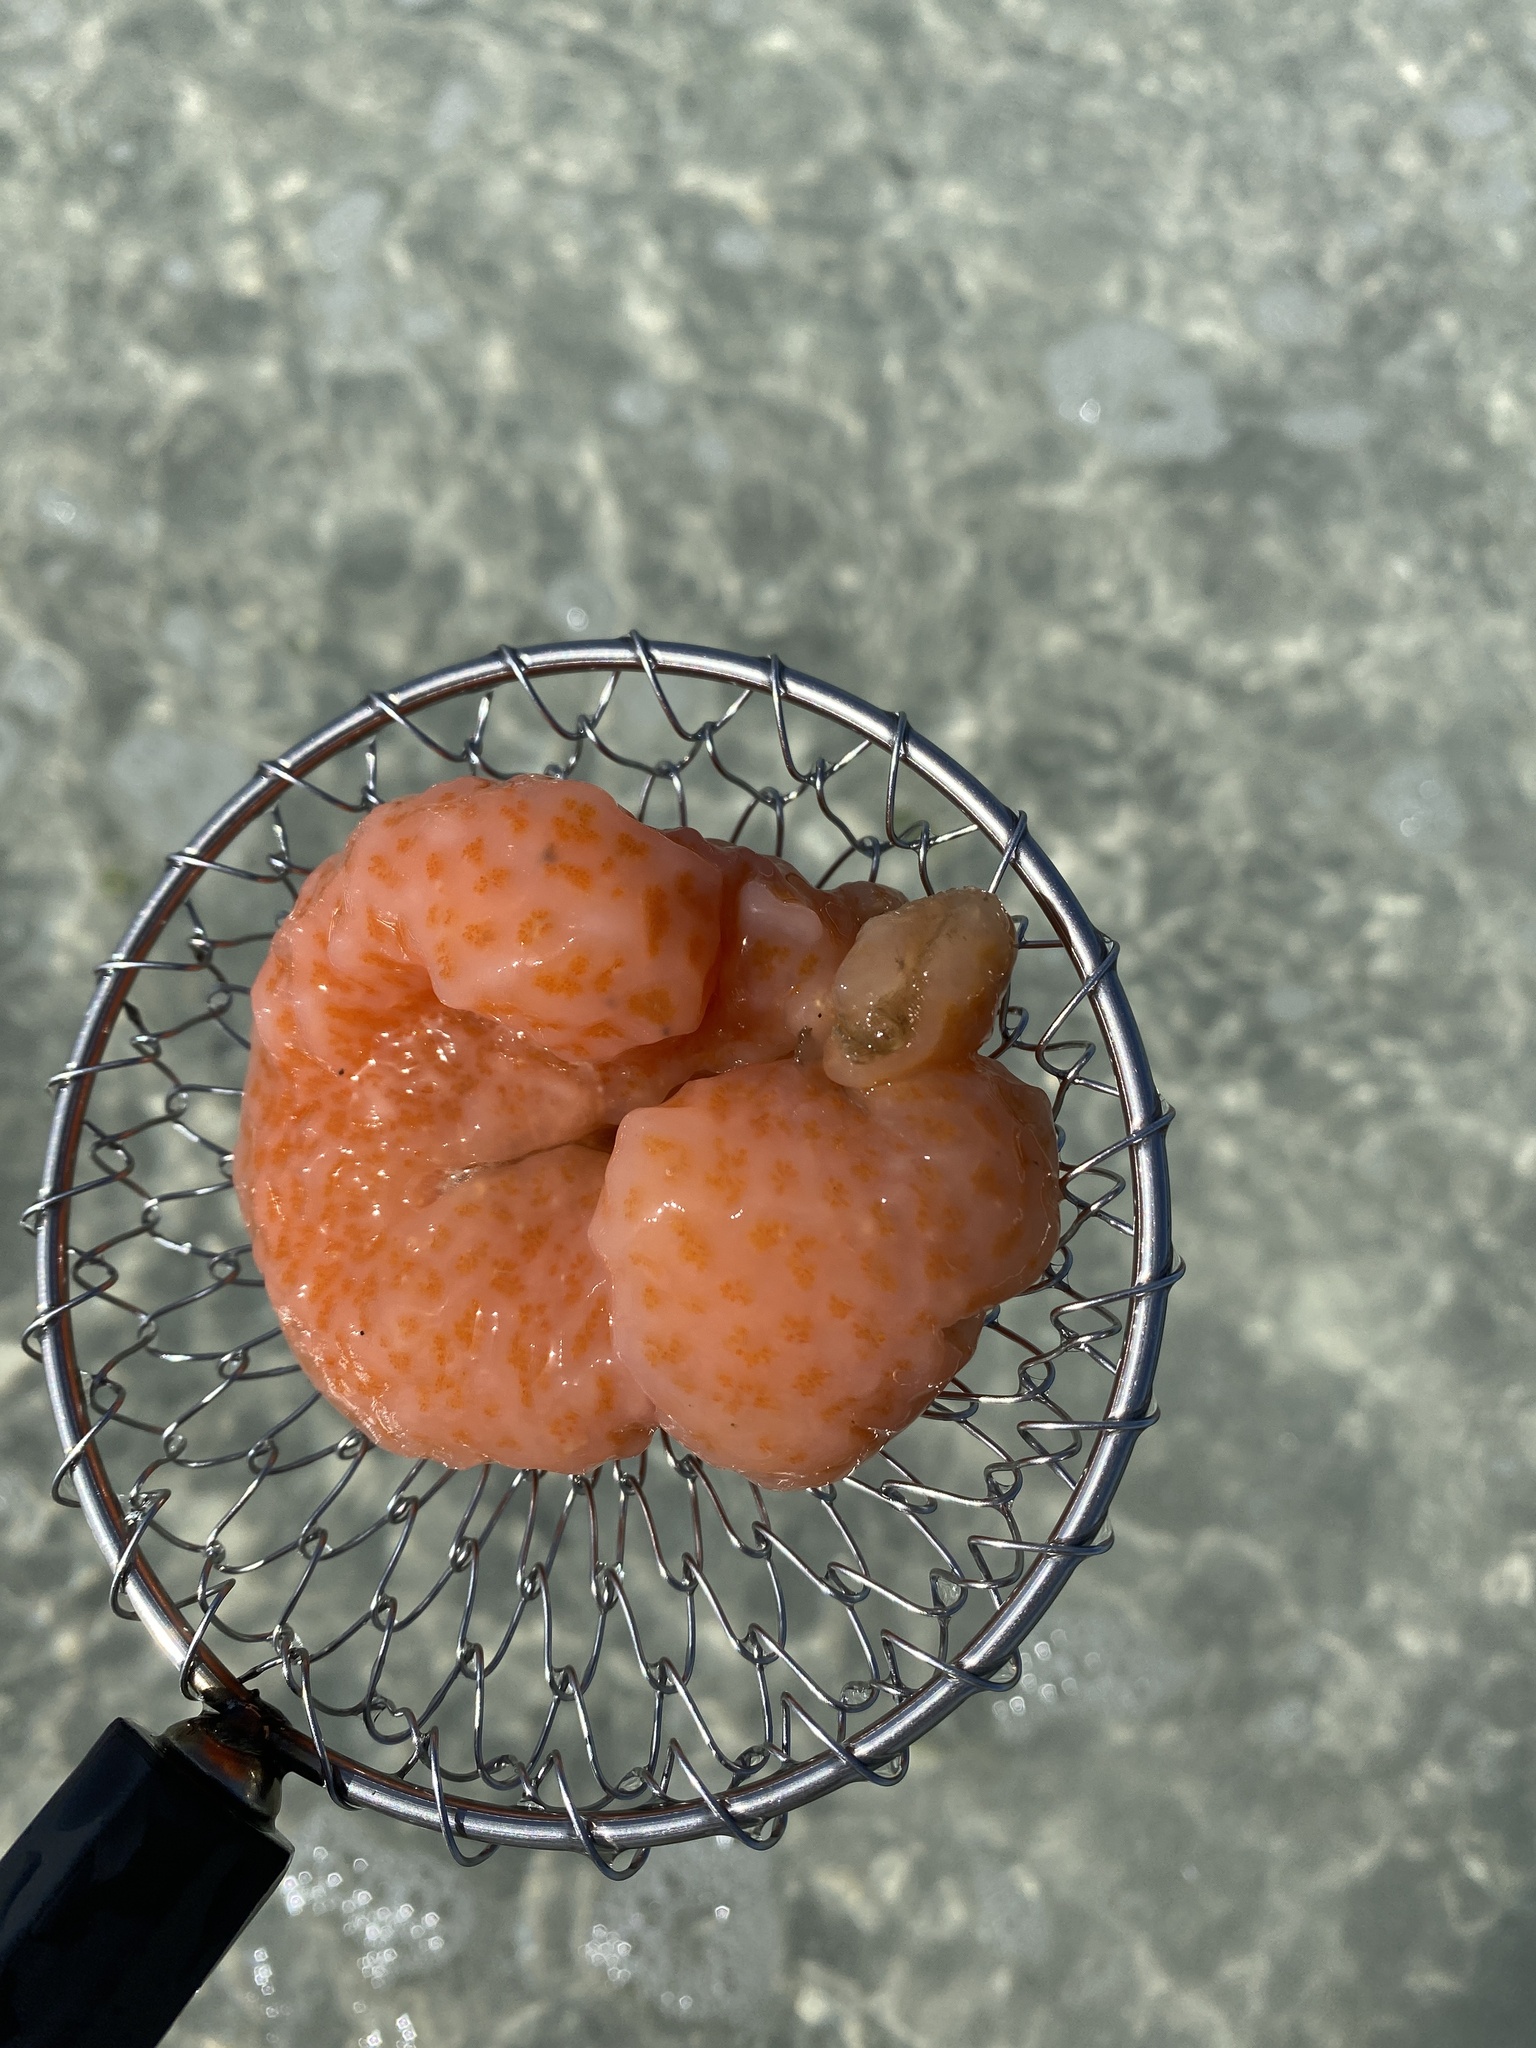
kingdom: Animalia
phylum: Chordata
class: Ascidiacea
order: Aplousobranchia
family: Polyclinidae
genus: Aplidium
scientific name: Aplidium stellatum
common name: Atlantic sea pork
